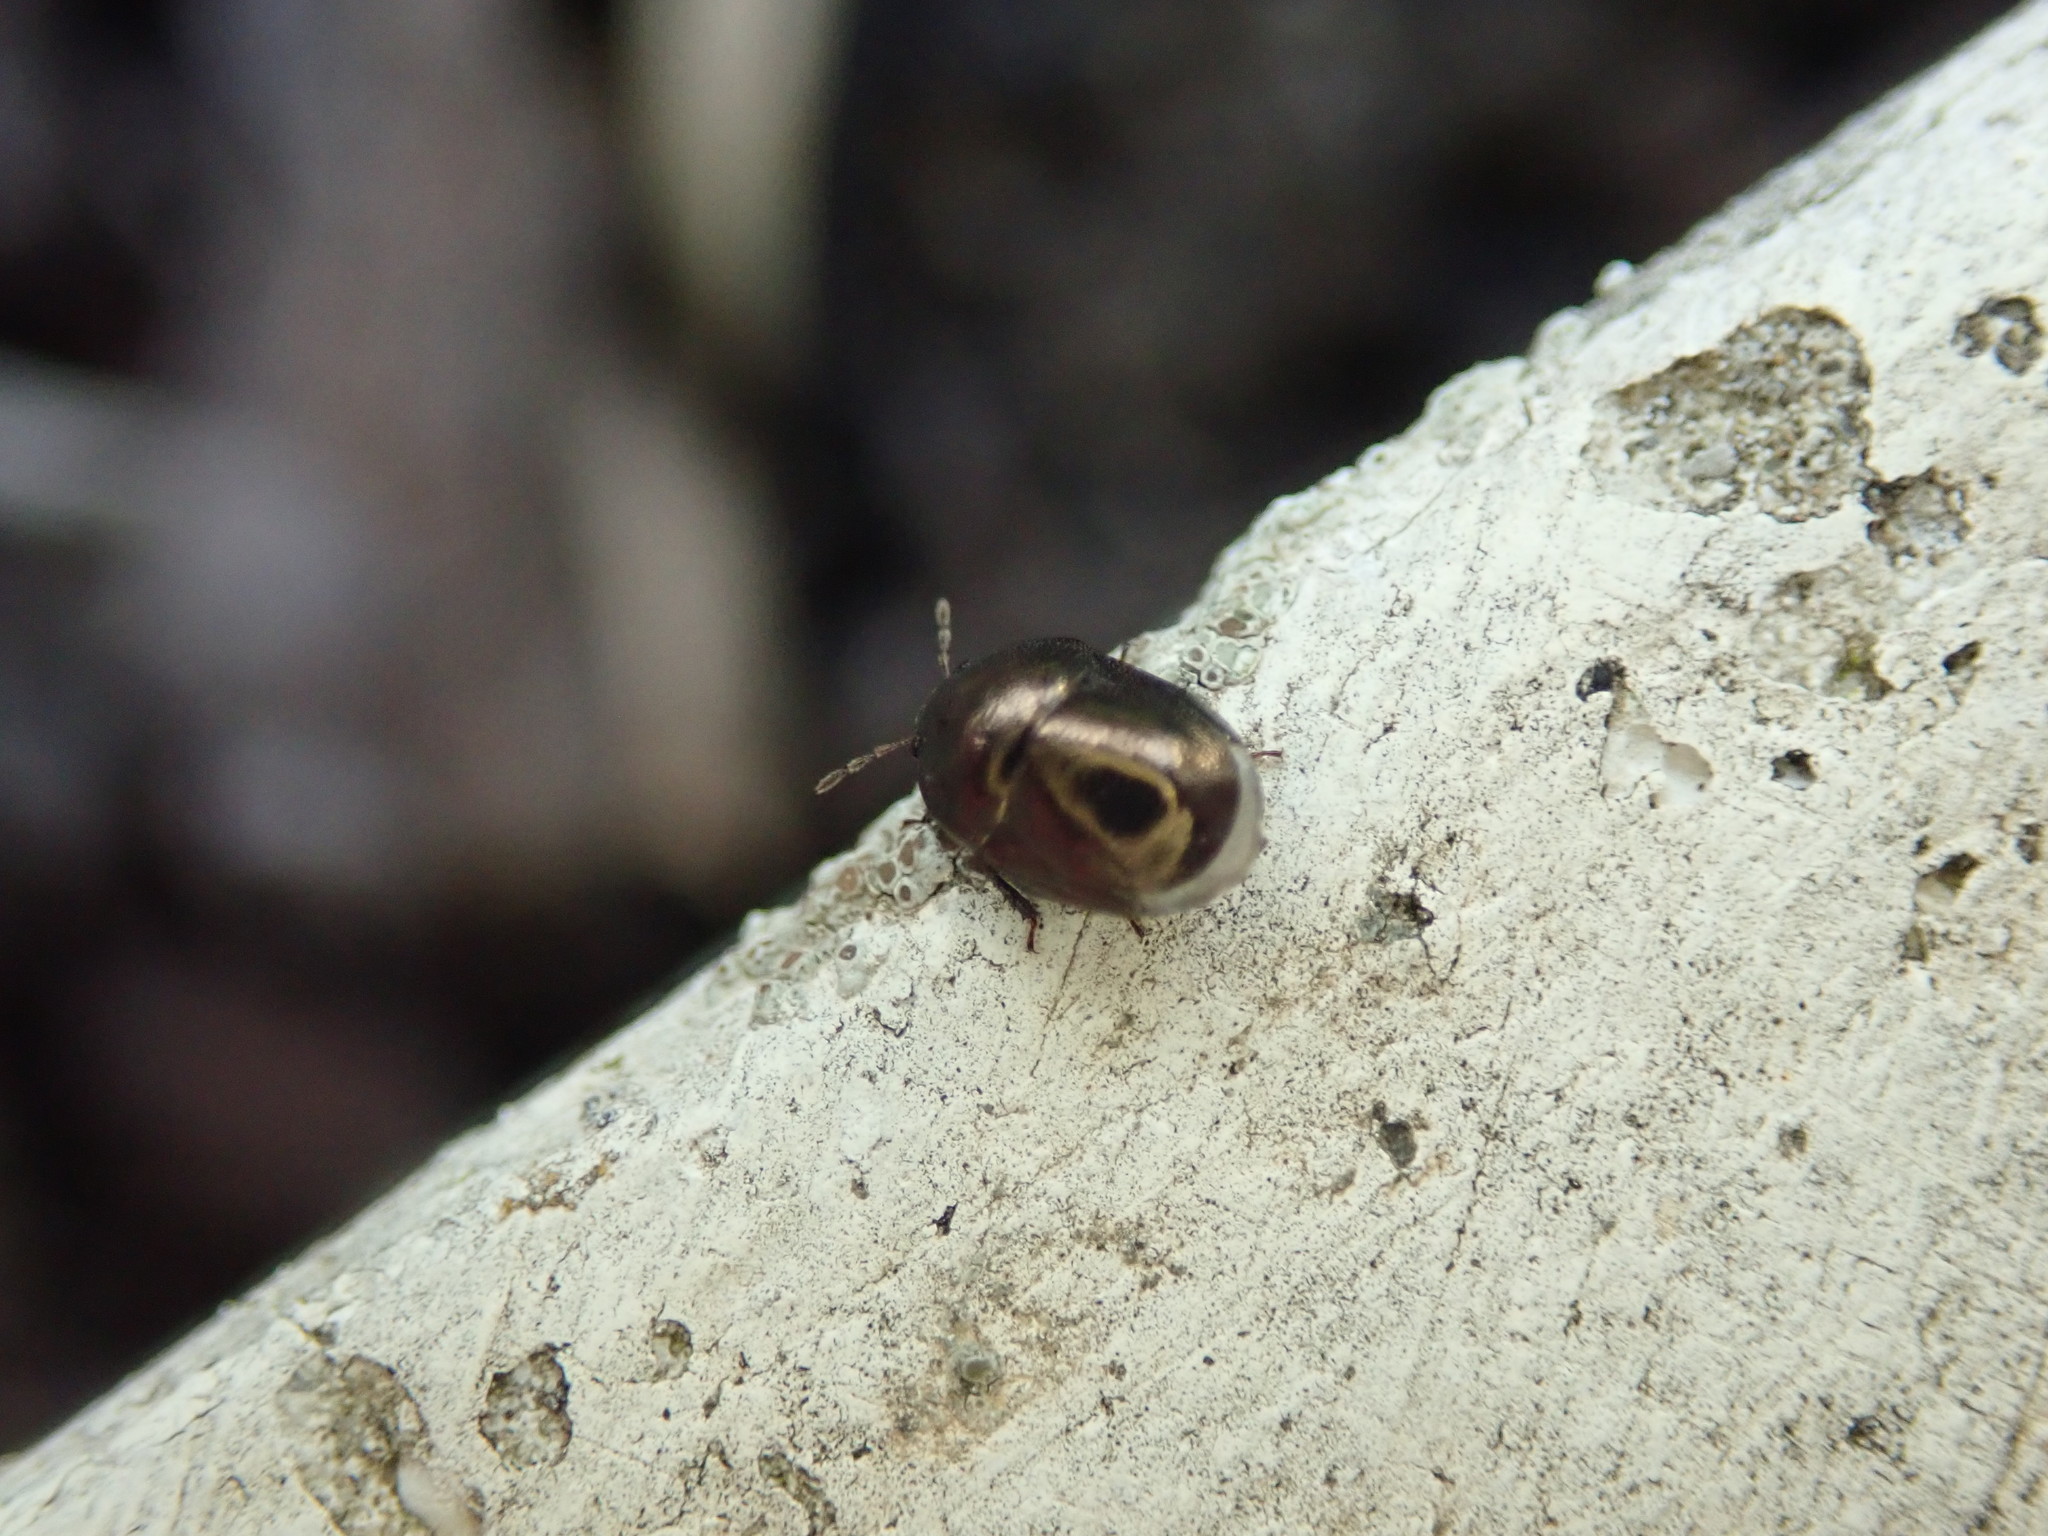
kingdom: Animalia
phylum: Arthropoda
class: Insecta
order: Hemiptera
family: Thyreocoridae
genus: Thyreocoris
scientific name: Thyreocoris scarabaeoides
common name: Negro bug
